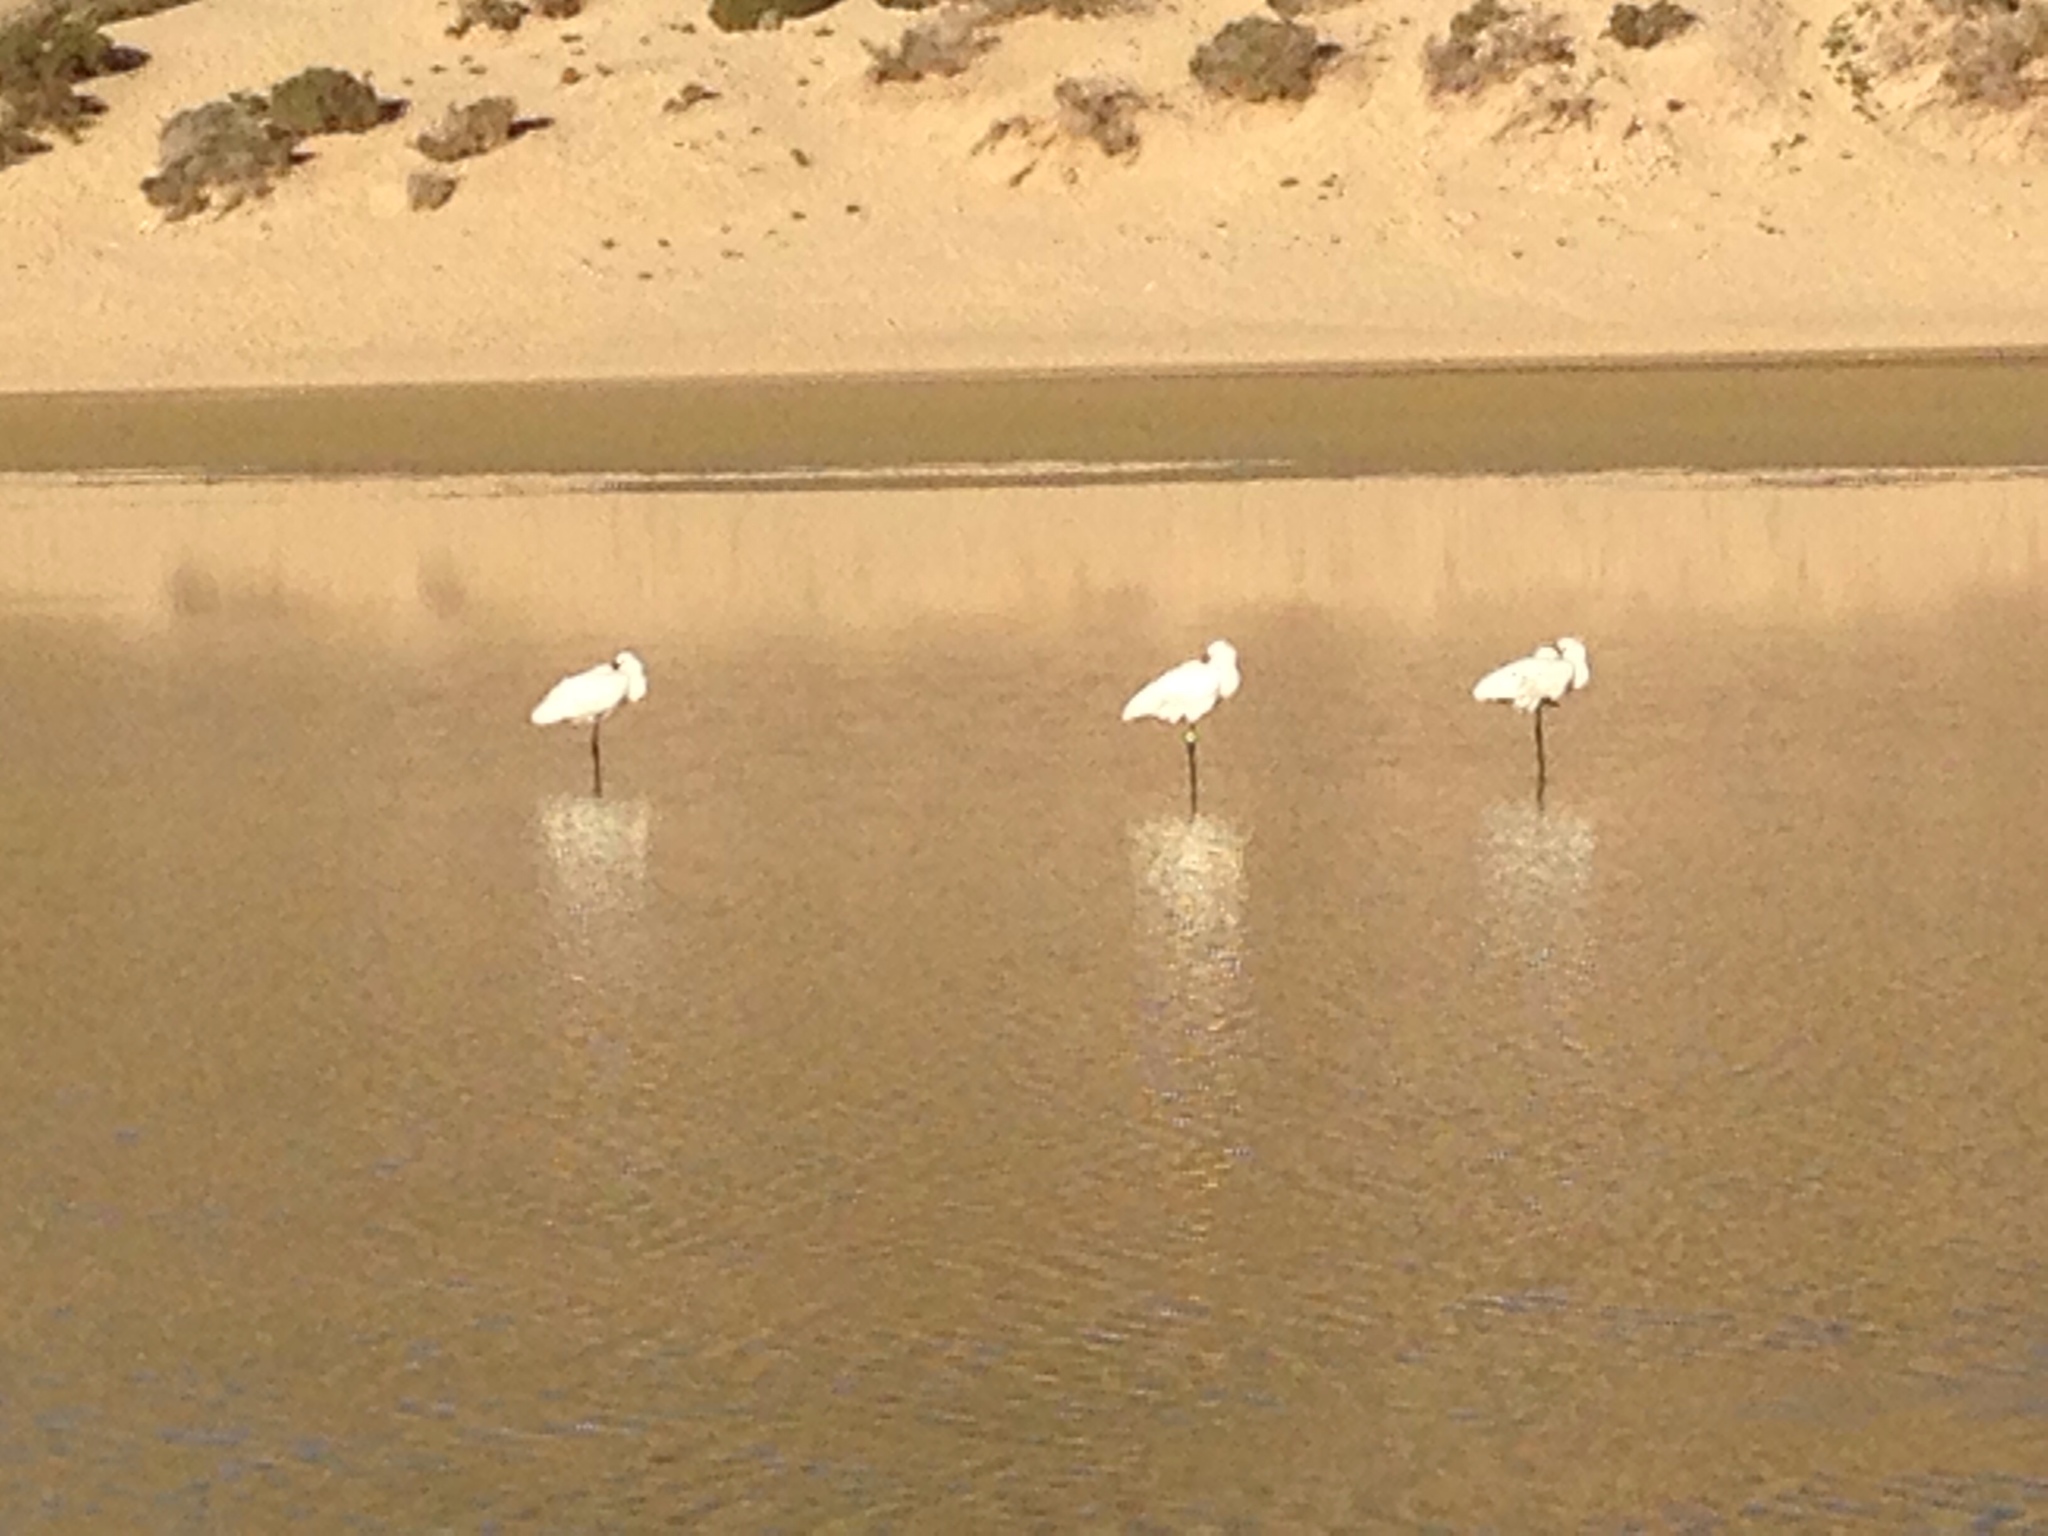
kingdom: Animalia
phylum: Chordata
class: Aves
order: Pelecaniformes
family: Threskiornithidae
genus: Platalea
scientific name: Platalea leucorodia
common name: Eurasian spoonbill
